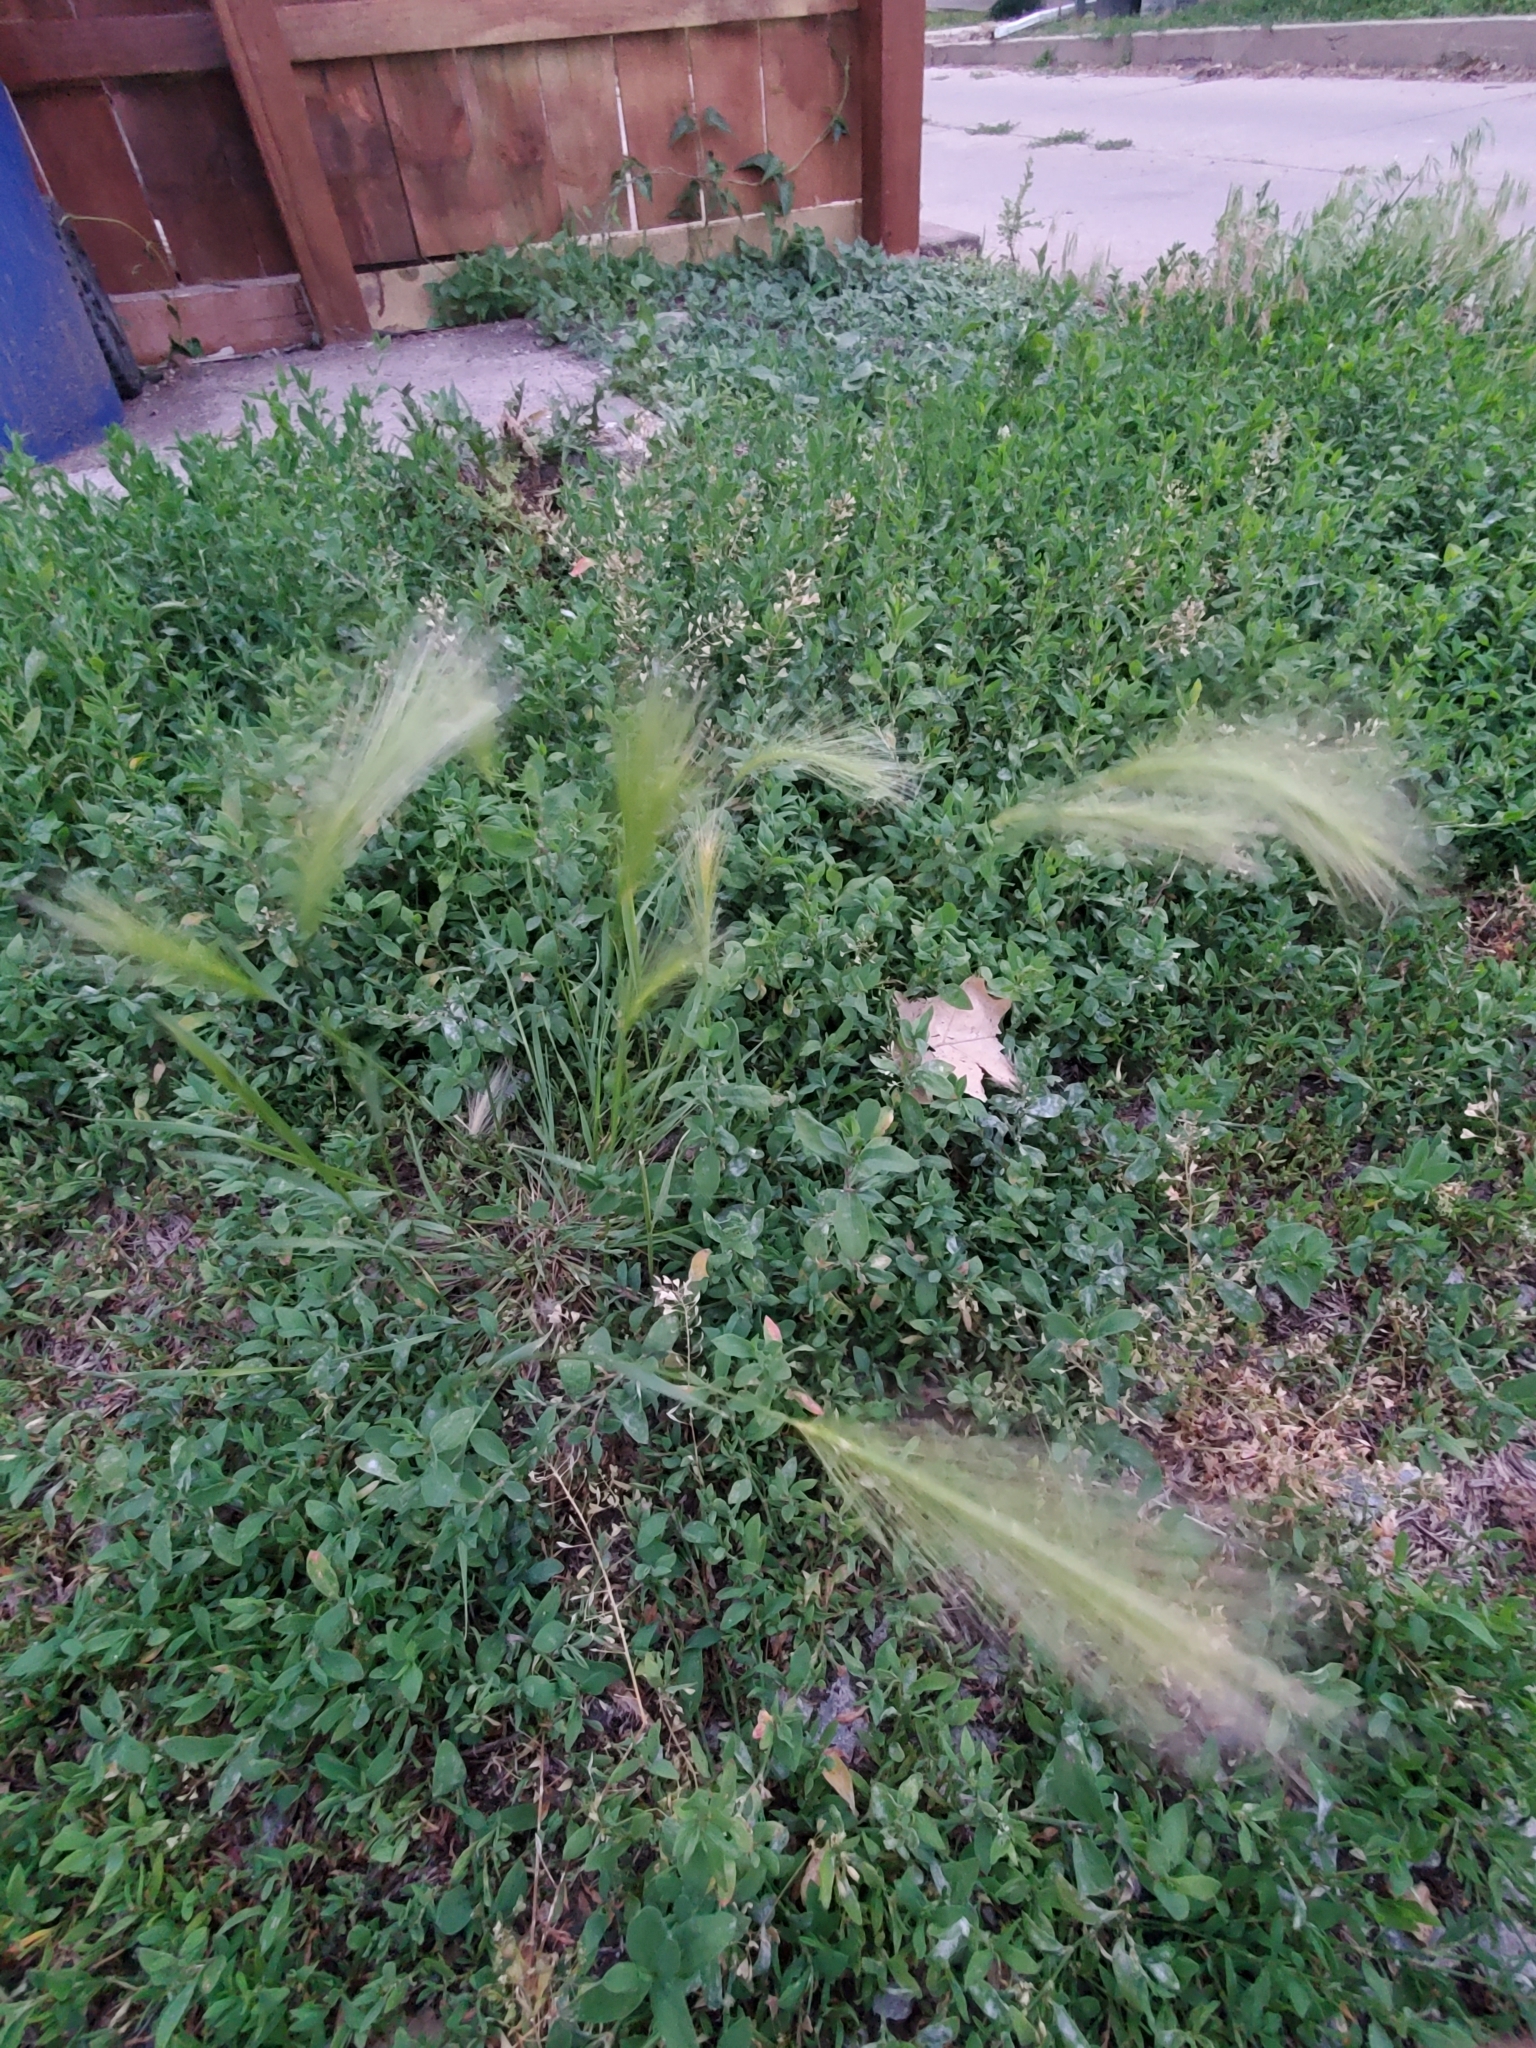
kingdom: Plantae
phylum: Tracheophyta
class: Liliopsida
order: Poales
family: Poaceae
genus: Hordeum
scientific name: Hordeum jubatum
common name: Foxtail barley
